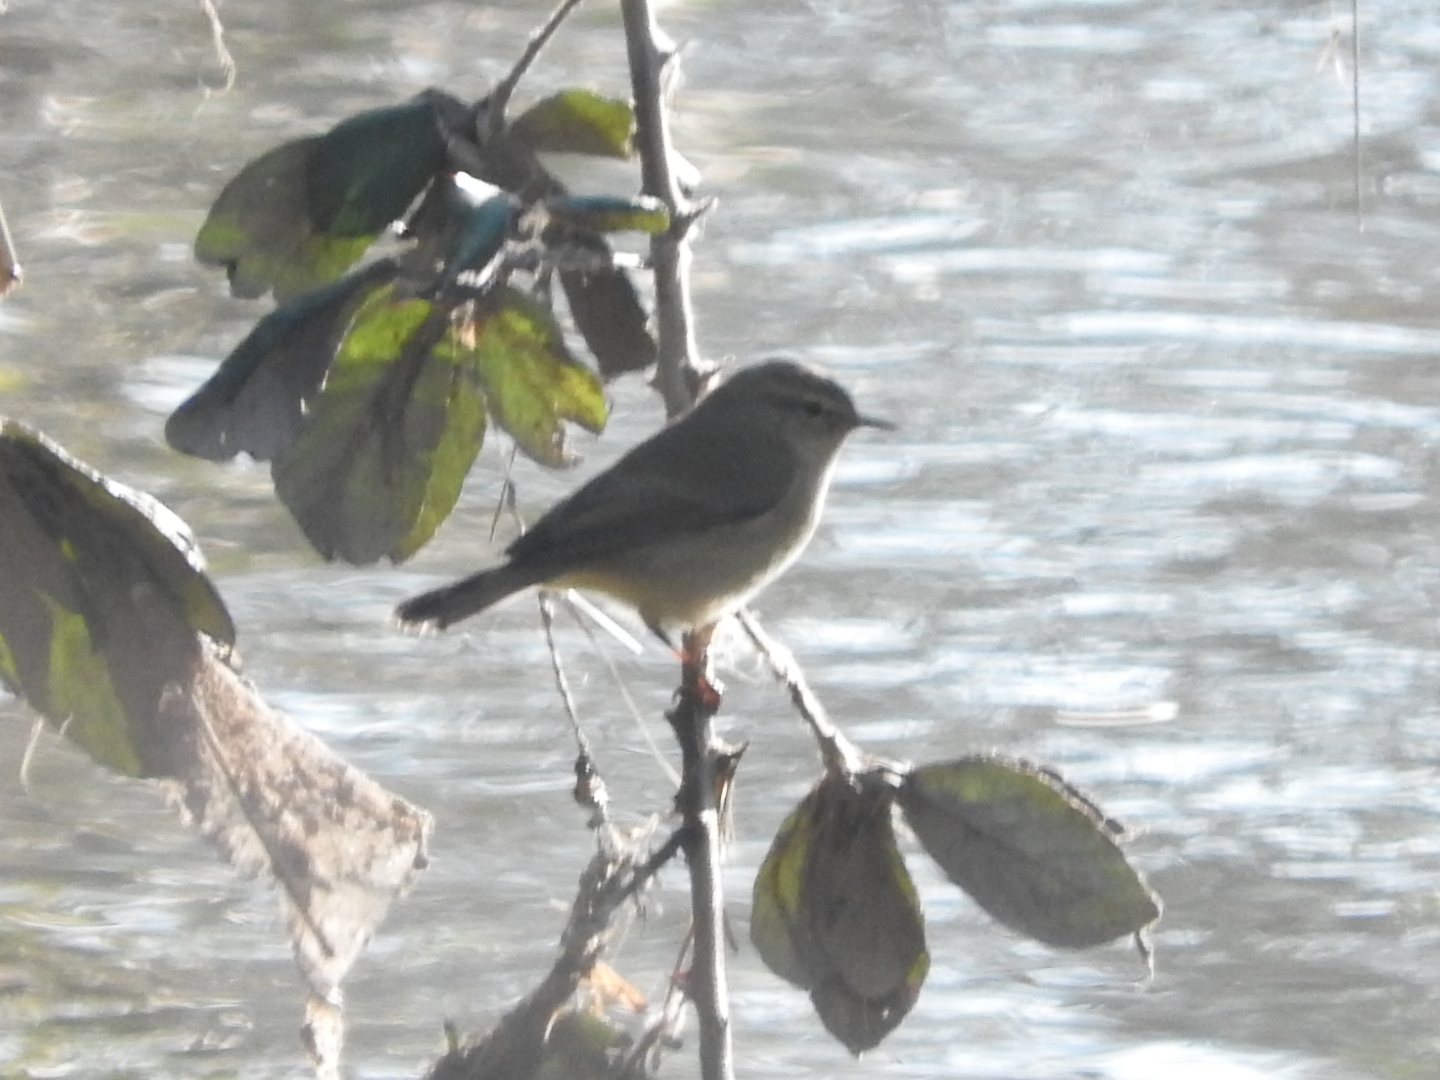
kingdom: Animalia
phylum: Chordata
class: Aves
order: Passeriformes
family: Phylloscopidae
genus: Phylloscopus
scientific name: Phylloscopus collybita
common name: Common chiffchaff
